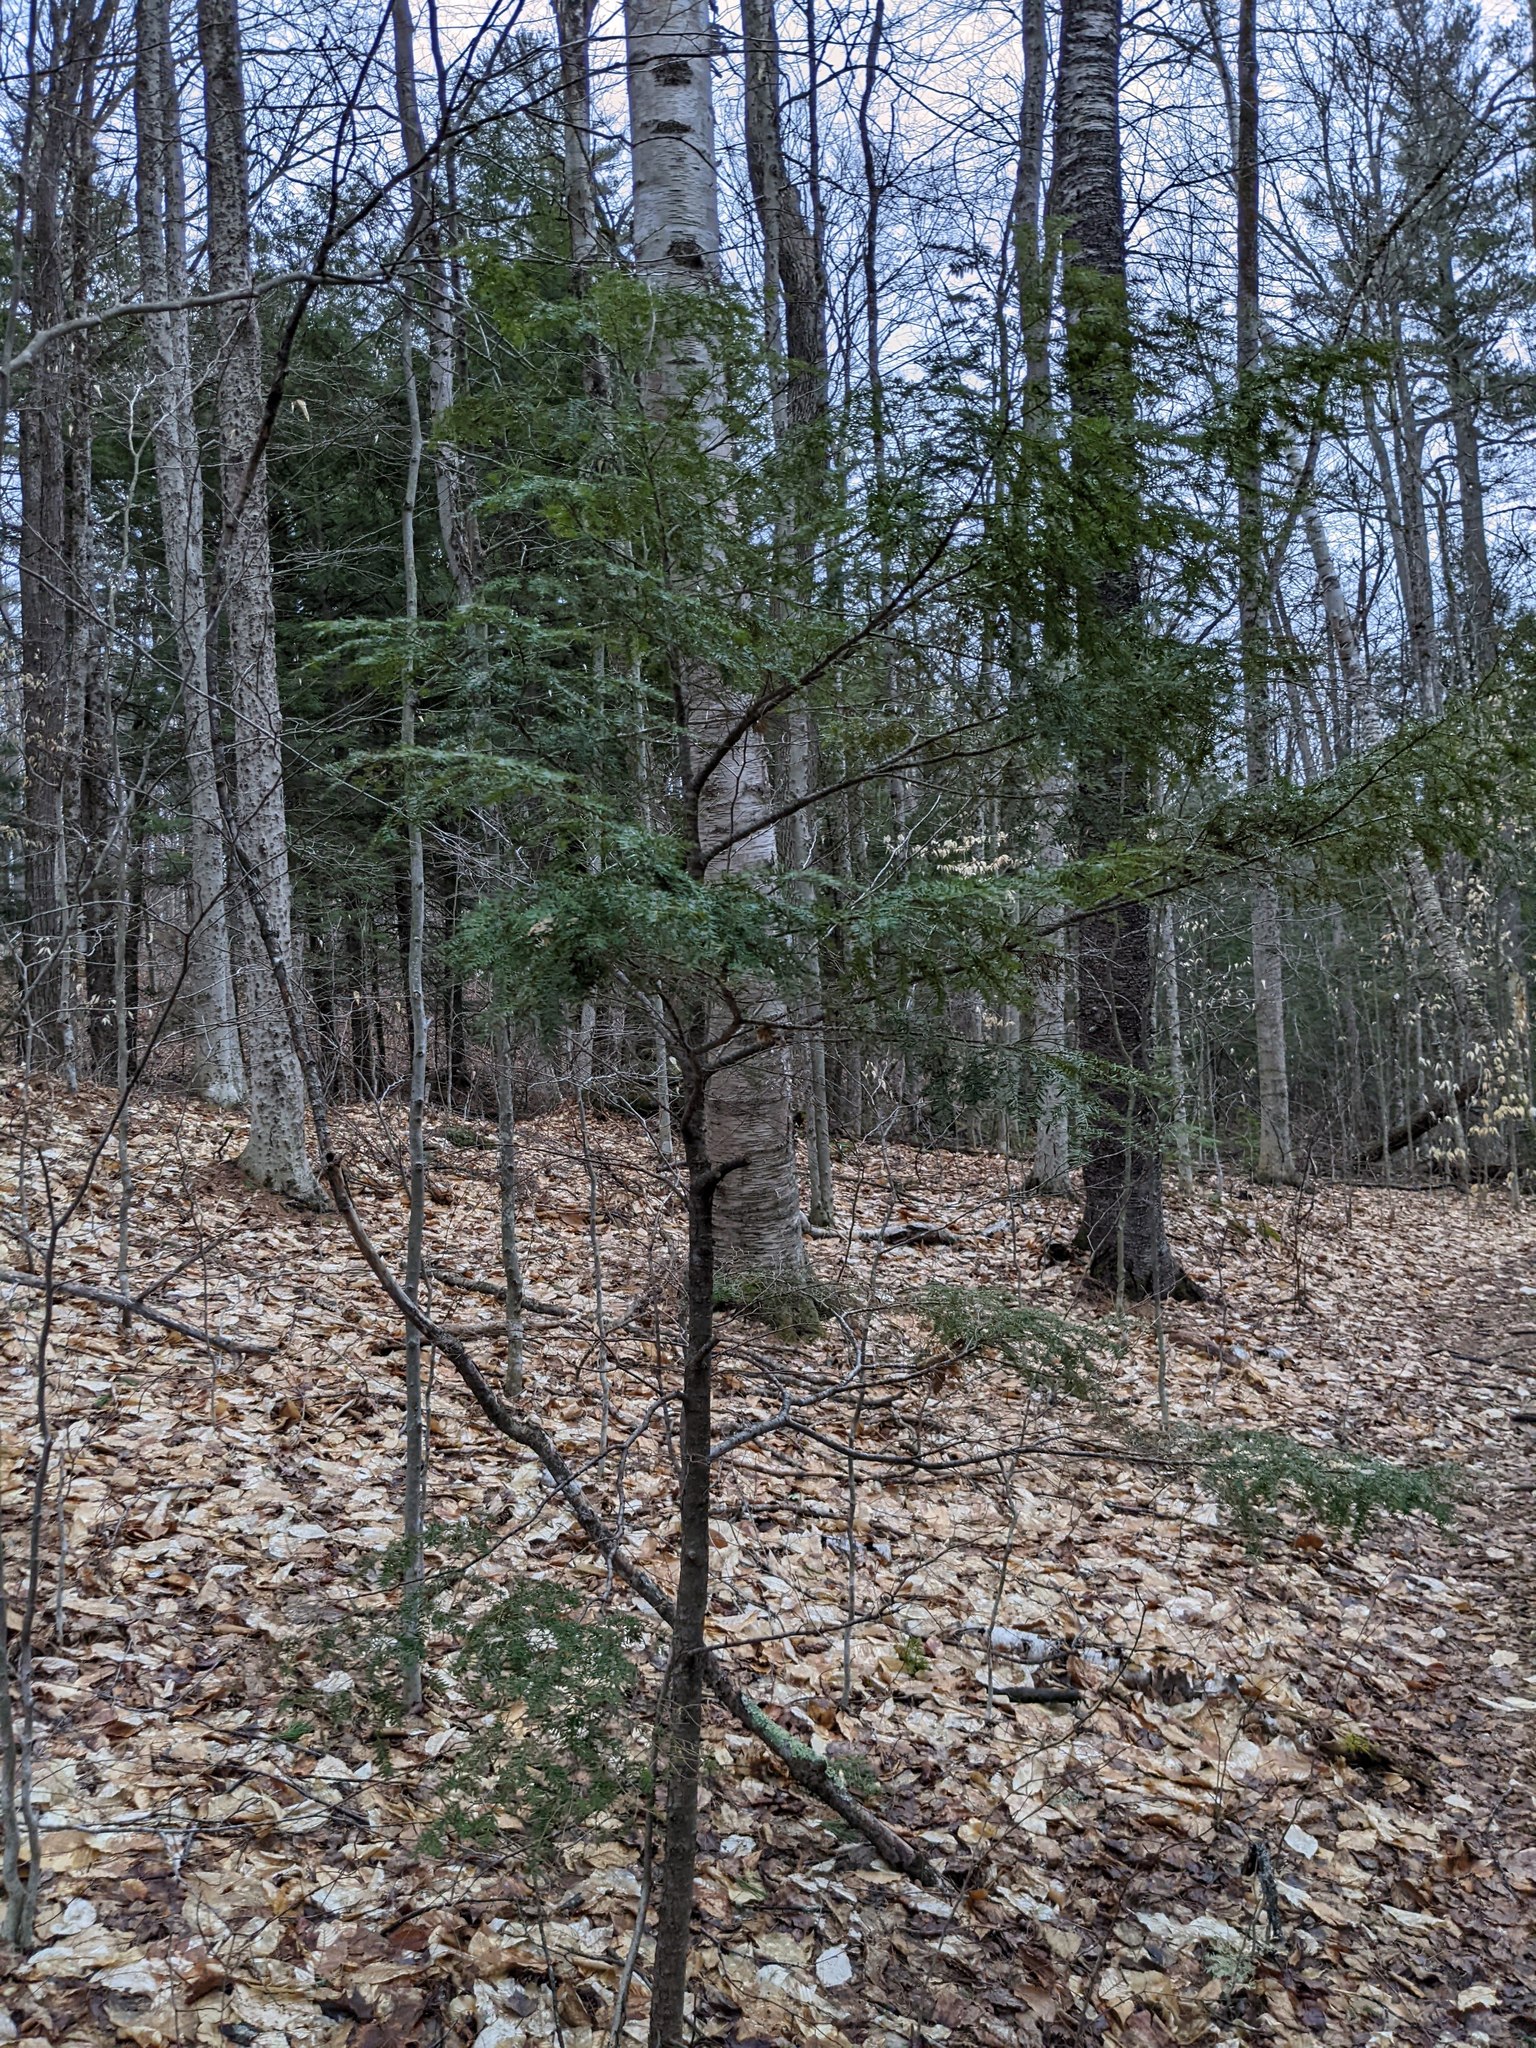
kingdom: Plantae
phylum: Tracheophyta
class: Pinopsida
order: Pinales
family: Pinaceae
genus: Tsuga
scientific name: Tsuga canadensis
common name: Eastern hemlock
